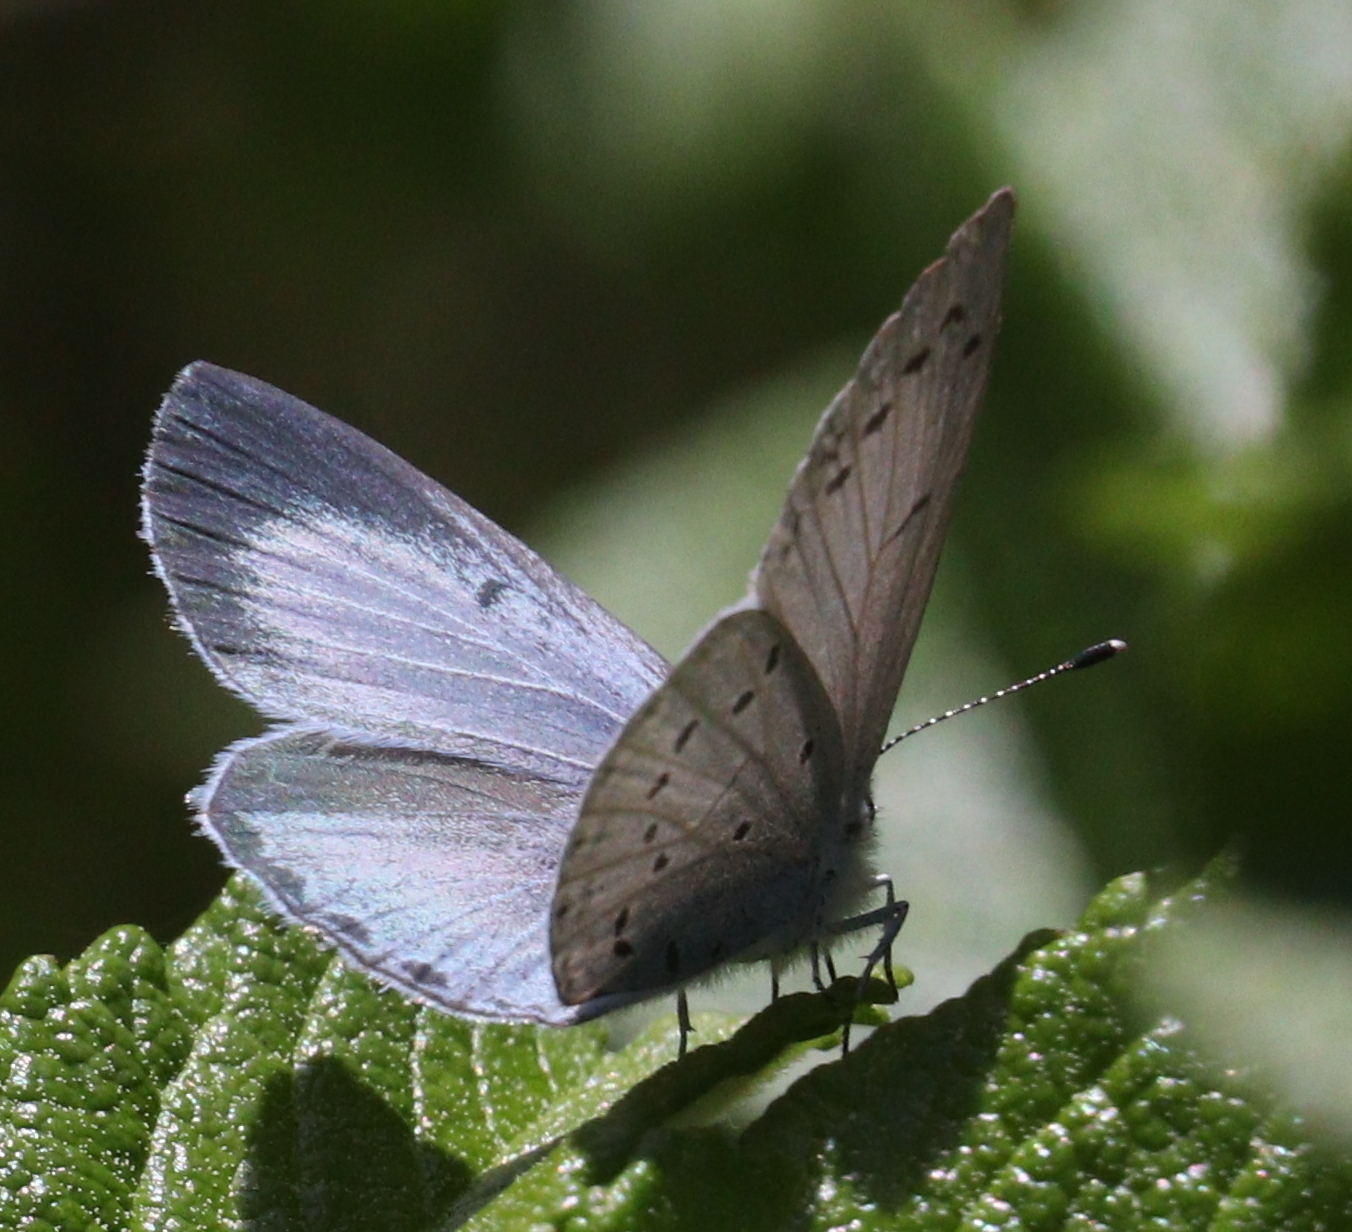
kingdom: Animalia
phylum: Arthropoda
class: Insecta
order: Lepidoptera
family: Lycaenidae
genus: Celastrina
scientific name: Celastrina argiolus
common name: Holly blue
